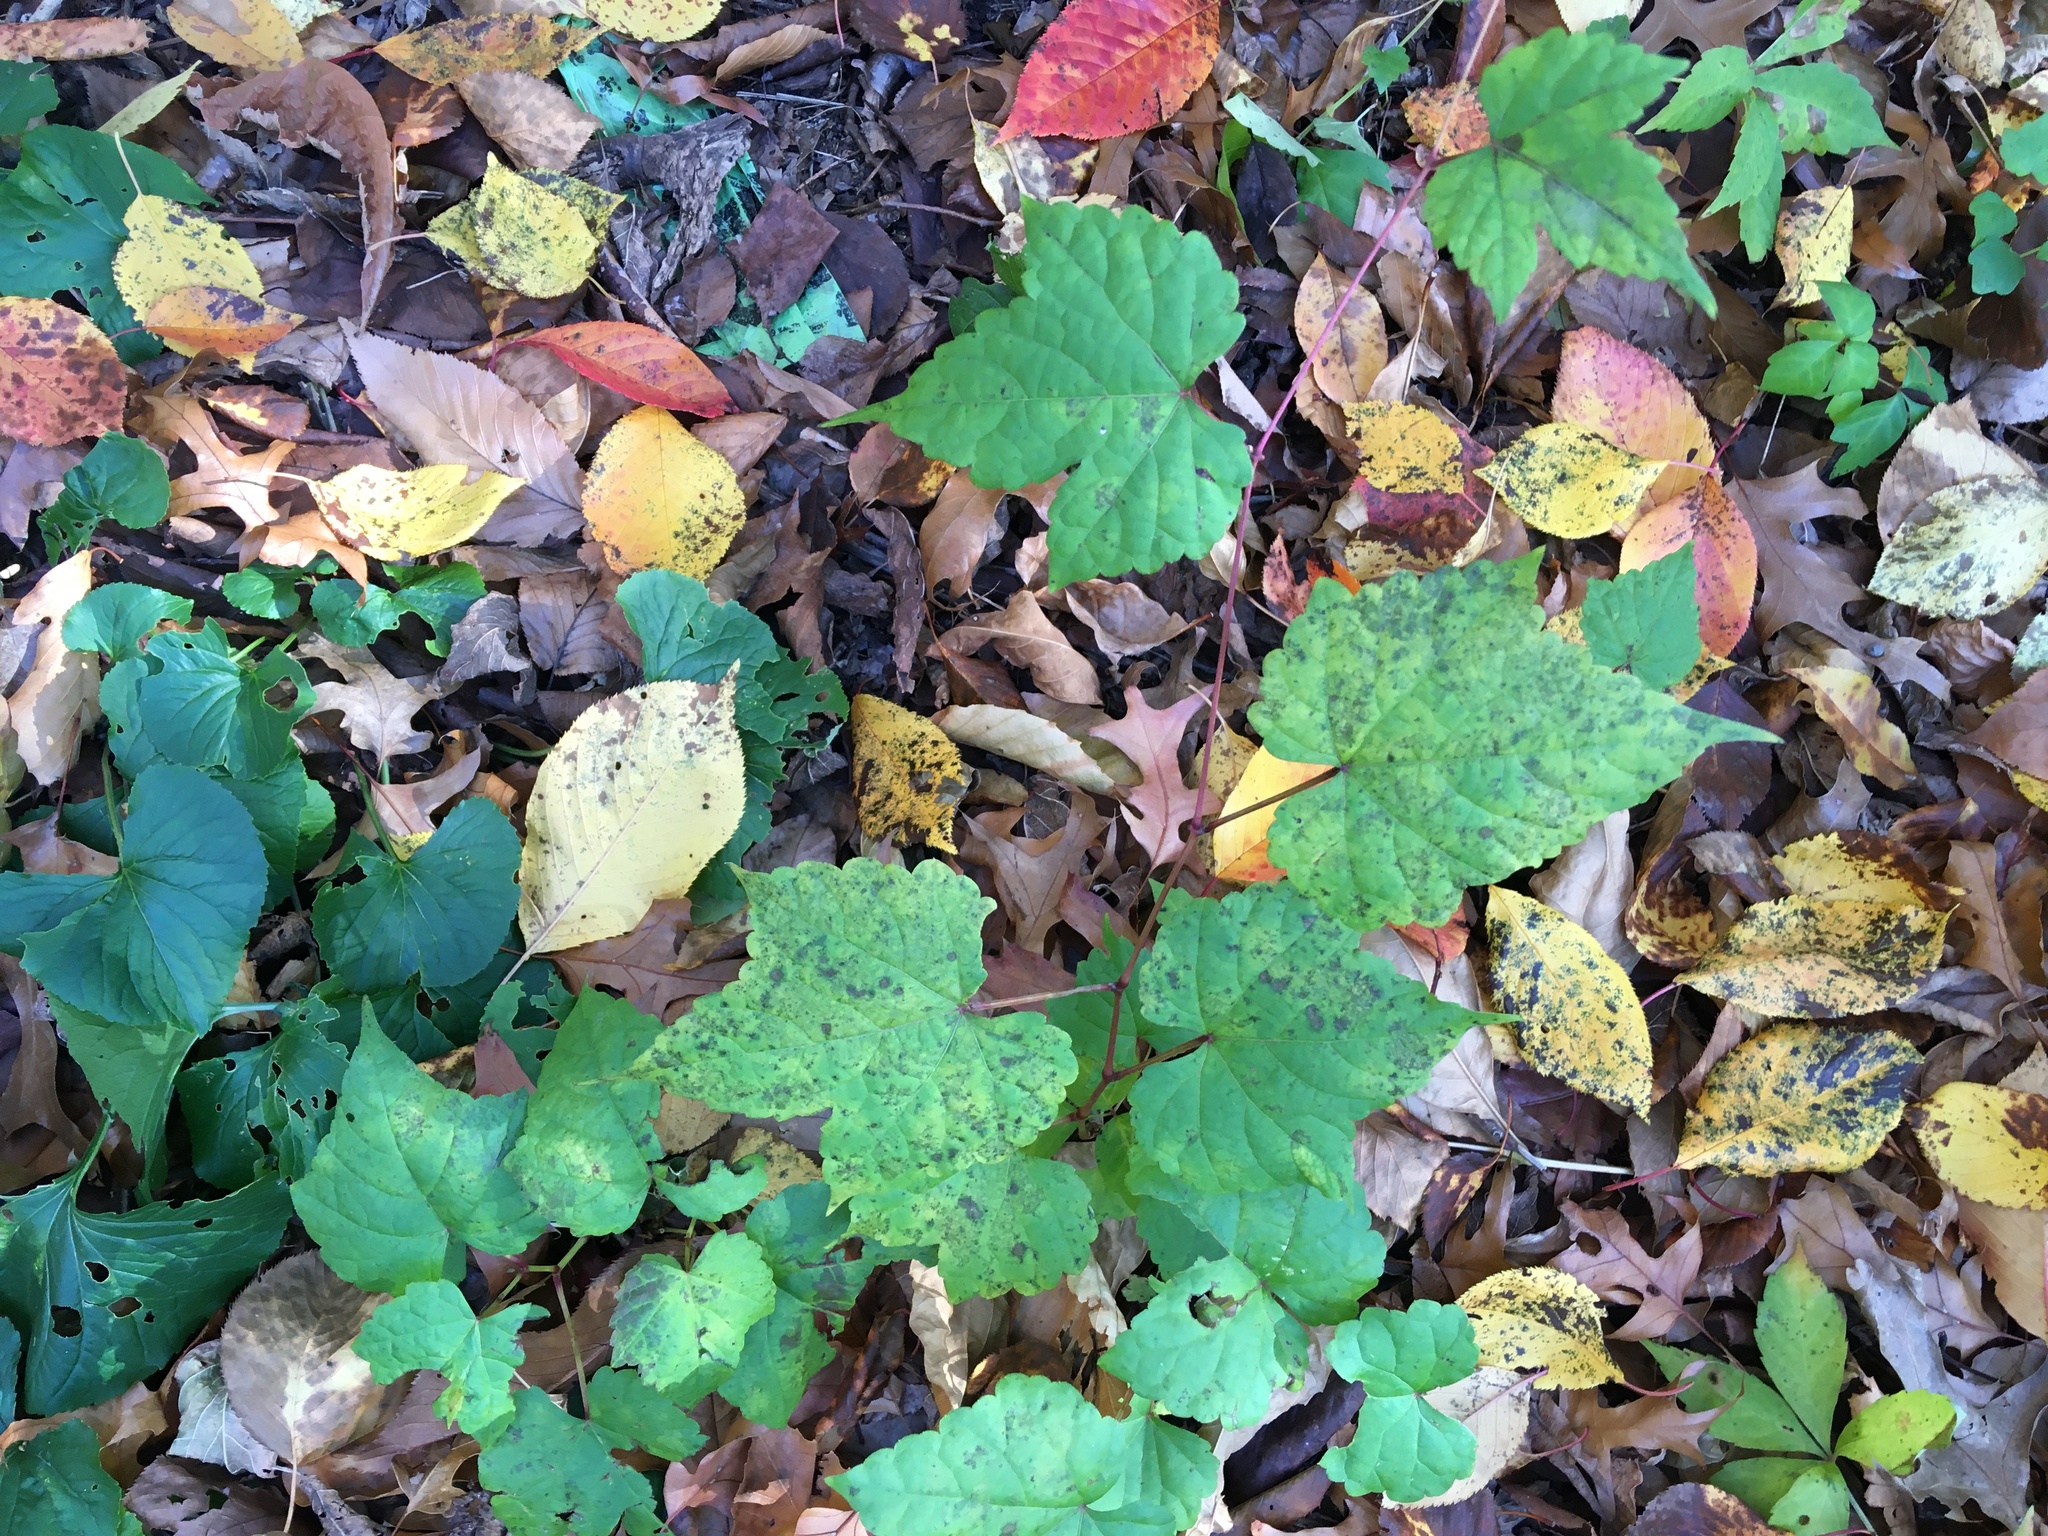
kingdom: Plantae
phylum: Tracheophyta
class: Magnoliopsida
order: Vitales
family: Vitaceae
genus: Ampelopsis
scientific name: Ampelopsis glandulosa
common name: Amur peppervine
